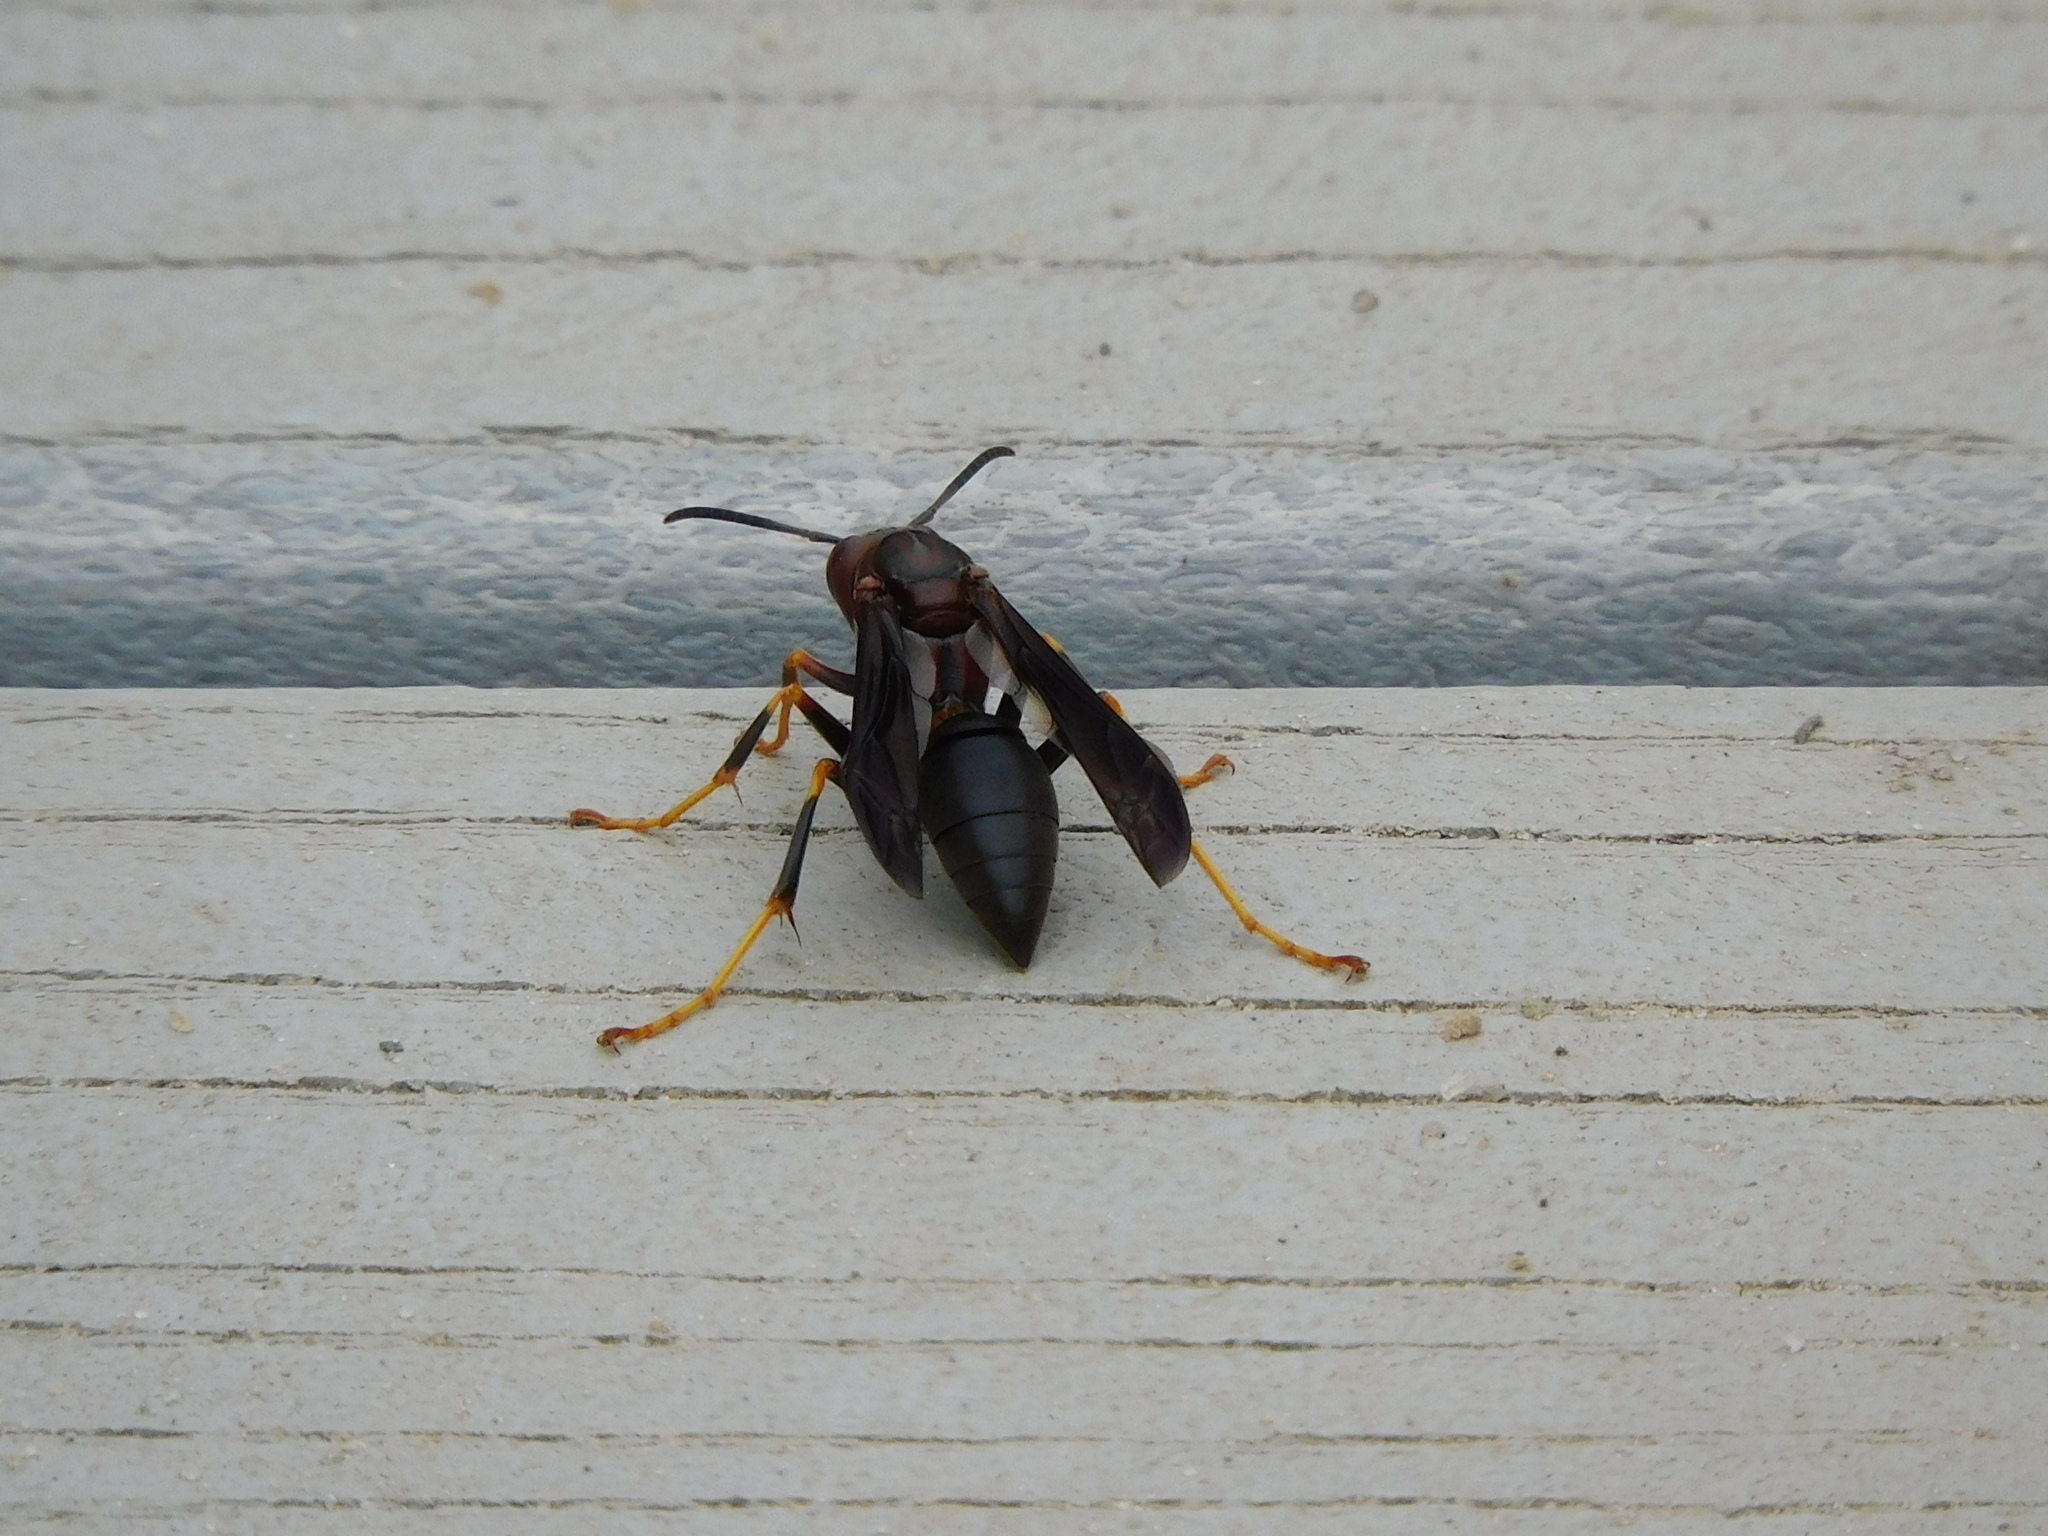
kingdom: Animalia
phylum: Arthropoda
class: Insecta
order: Hymenoptera
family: Eumenidae
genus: Polistes
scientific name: Polistes metricus
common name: Metric paper wasp
